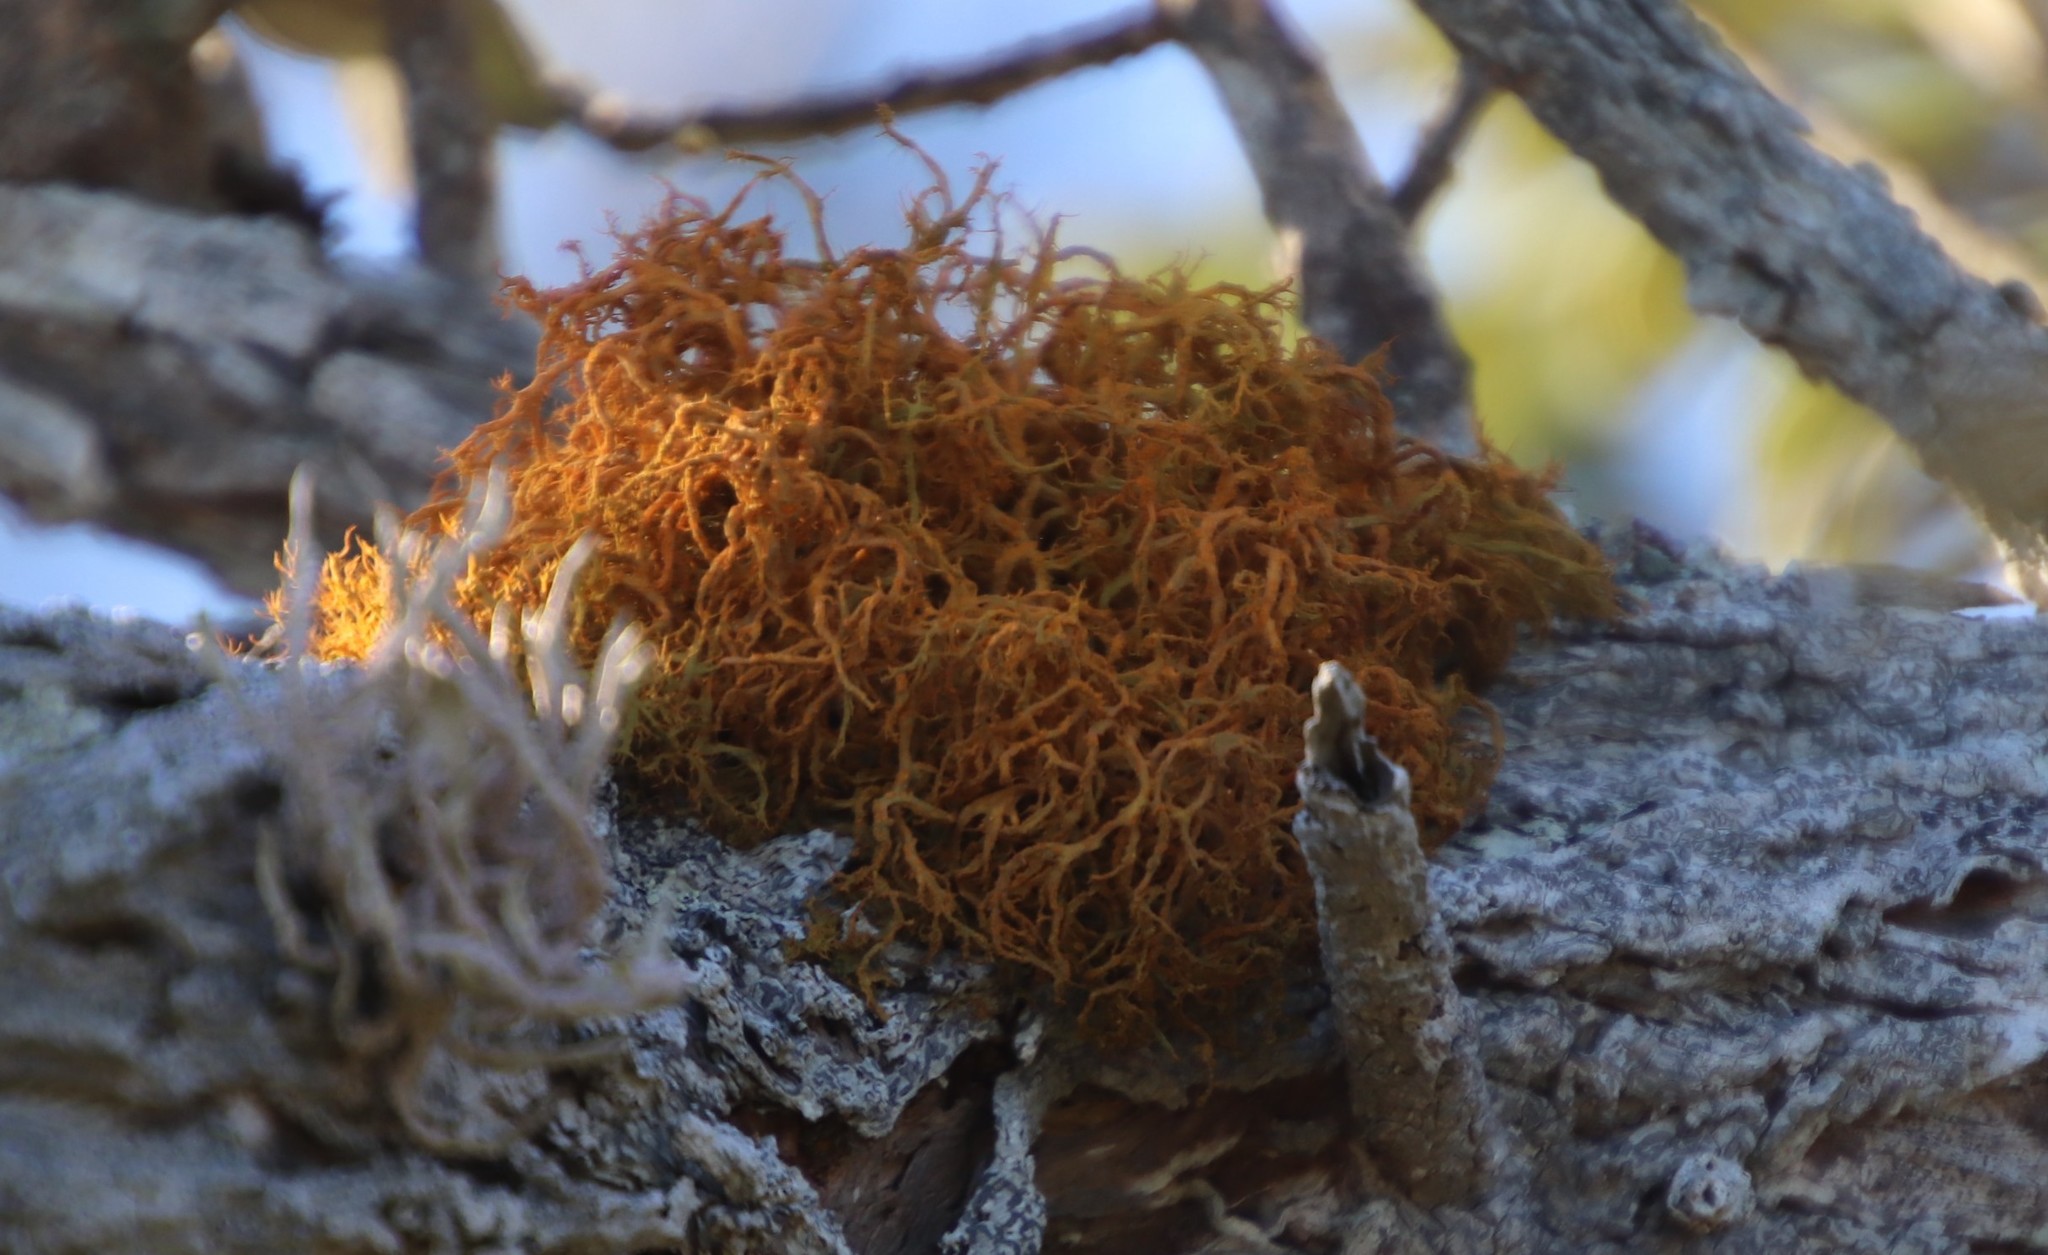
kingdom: Fungi
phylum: Ascomycota
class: Lecanoromycetes
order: Teloschistales
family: Teloschistaceae
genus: Teloschistes
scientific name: Teloschistes flavicans
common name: Golden hair-lichen
